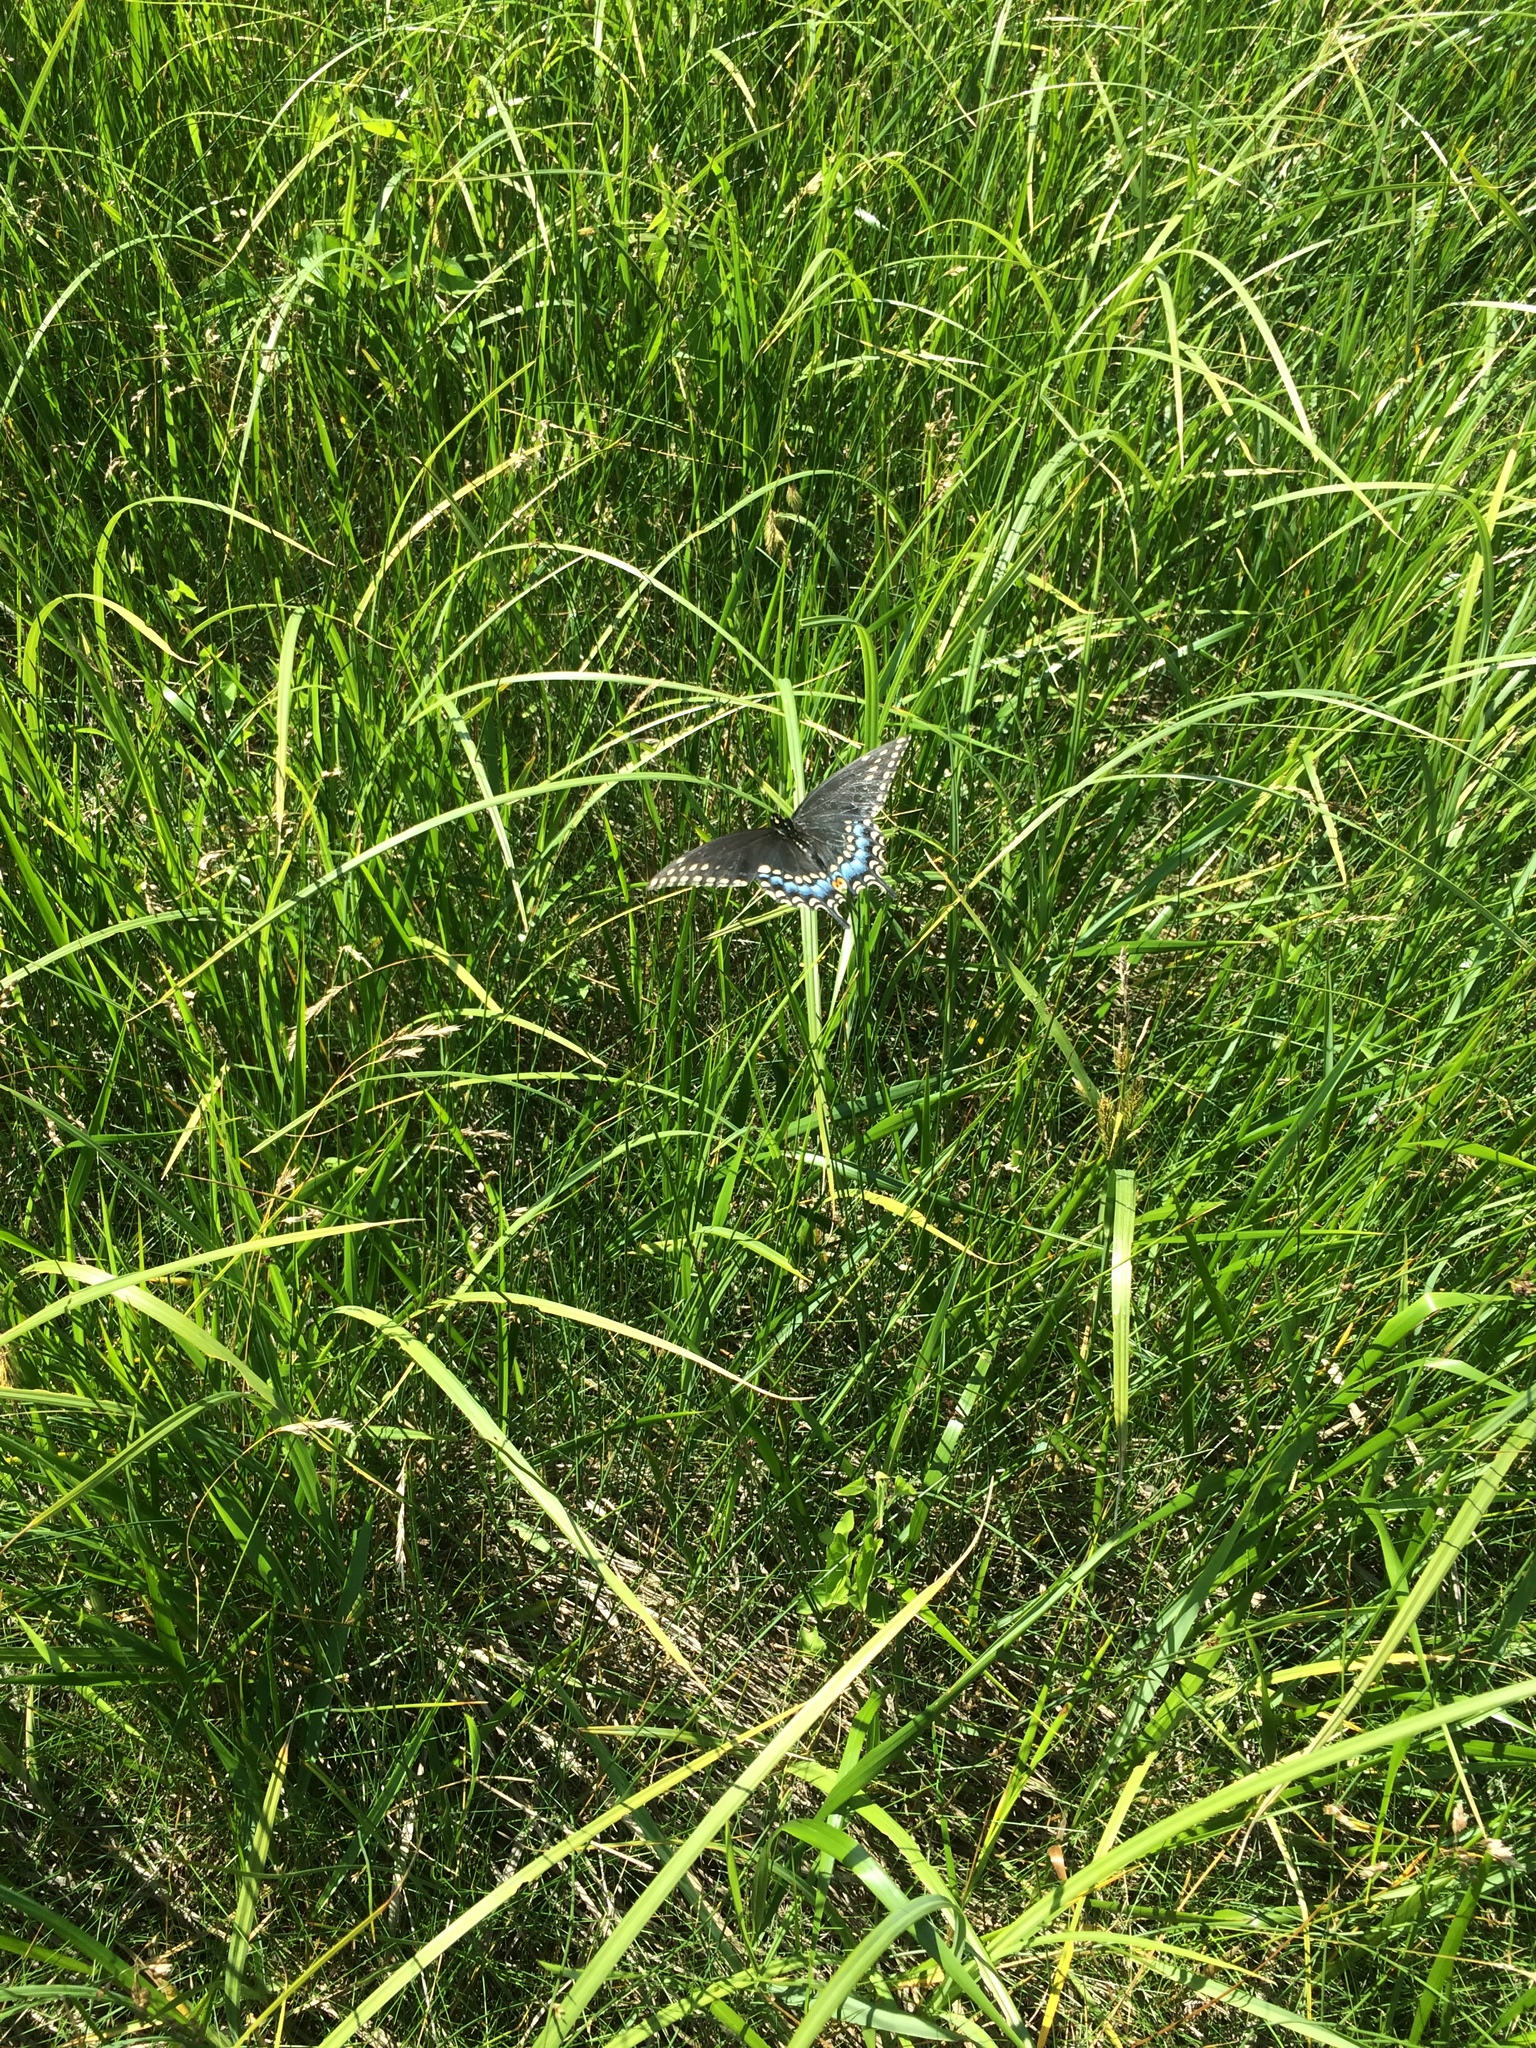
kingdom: Animalia
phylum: Arthropoda
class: Insecta
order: Lepidoptera
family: Papilionidae
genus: Papilio
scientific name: Papilio polyxenes
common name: Black swallowtail
